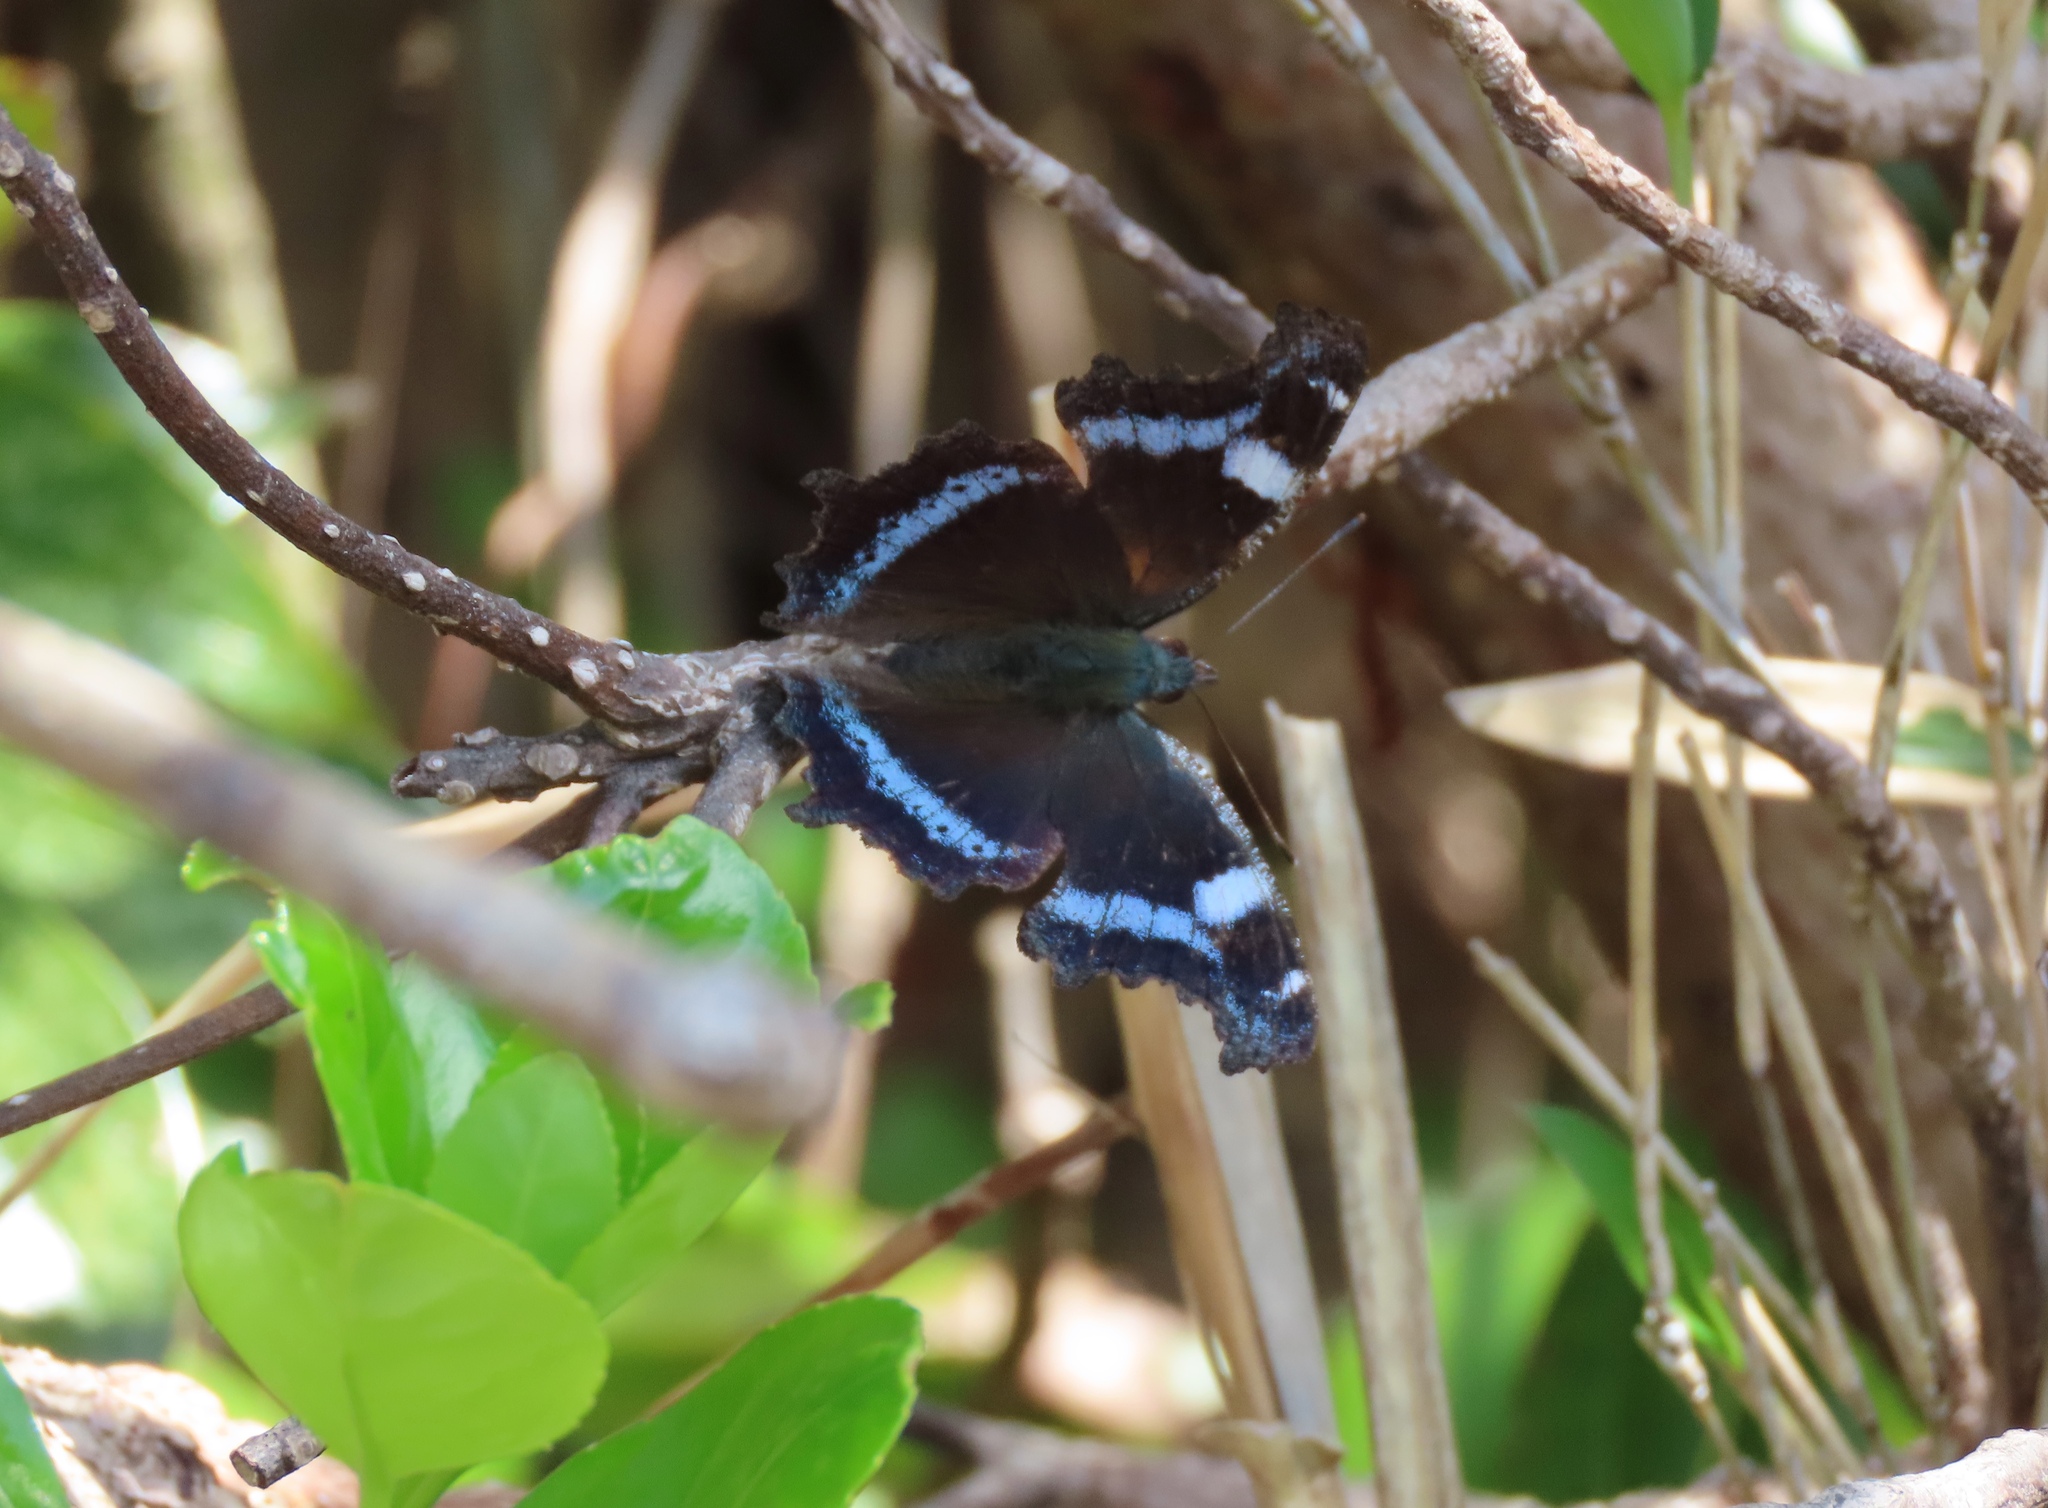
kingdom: Animalia
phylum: Arthropoda
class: Insecta
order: Lepidoptera
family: Nymphalidae
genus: Vanessa
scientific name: Vanessa Kaniska canace
